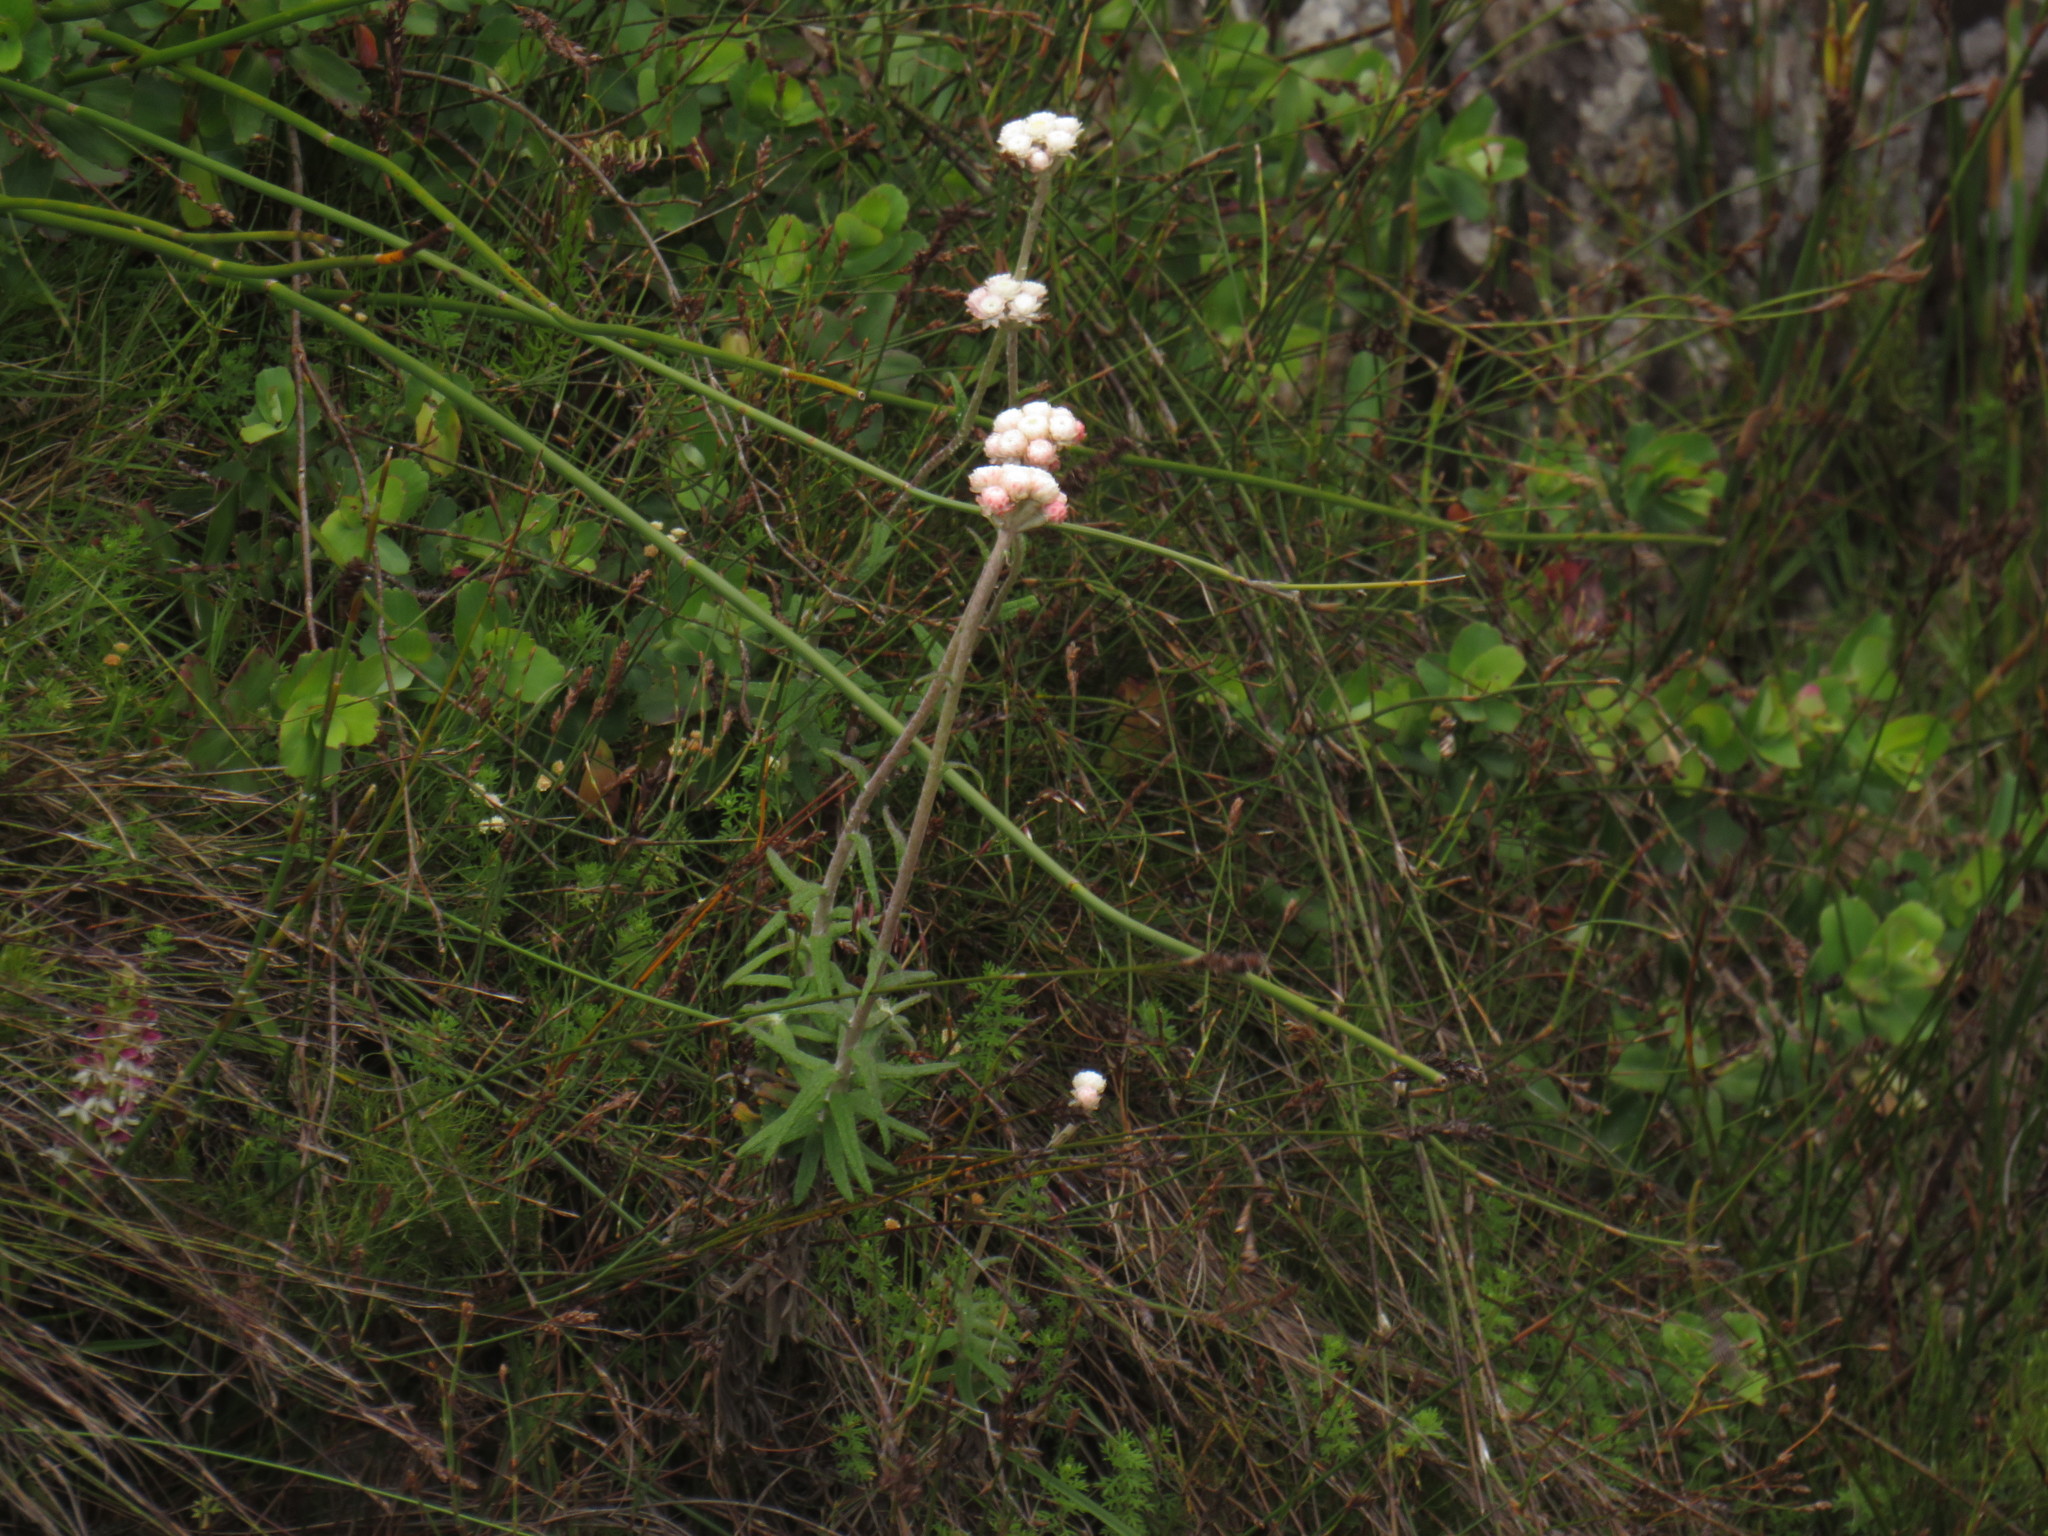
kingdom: Plantae
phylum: Tracheophyta
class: Magnoliopsida
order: Asterales
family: Asteraceae
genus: Helichrysum
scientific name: Helichrysum felinum
